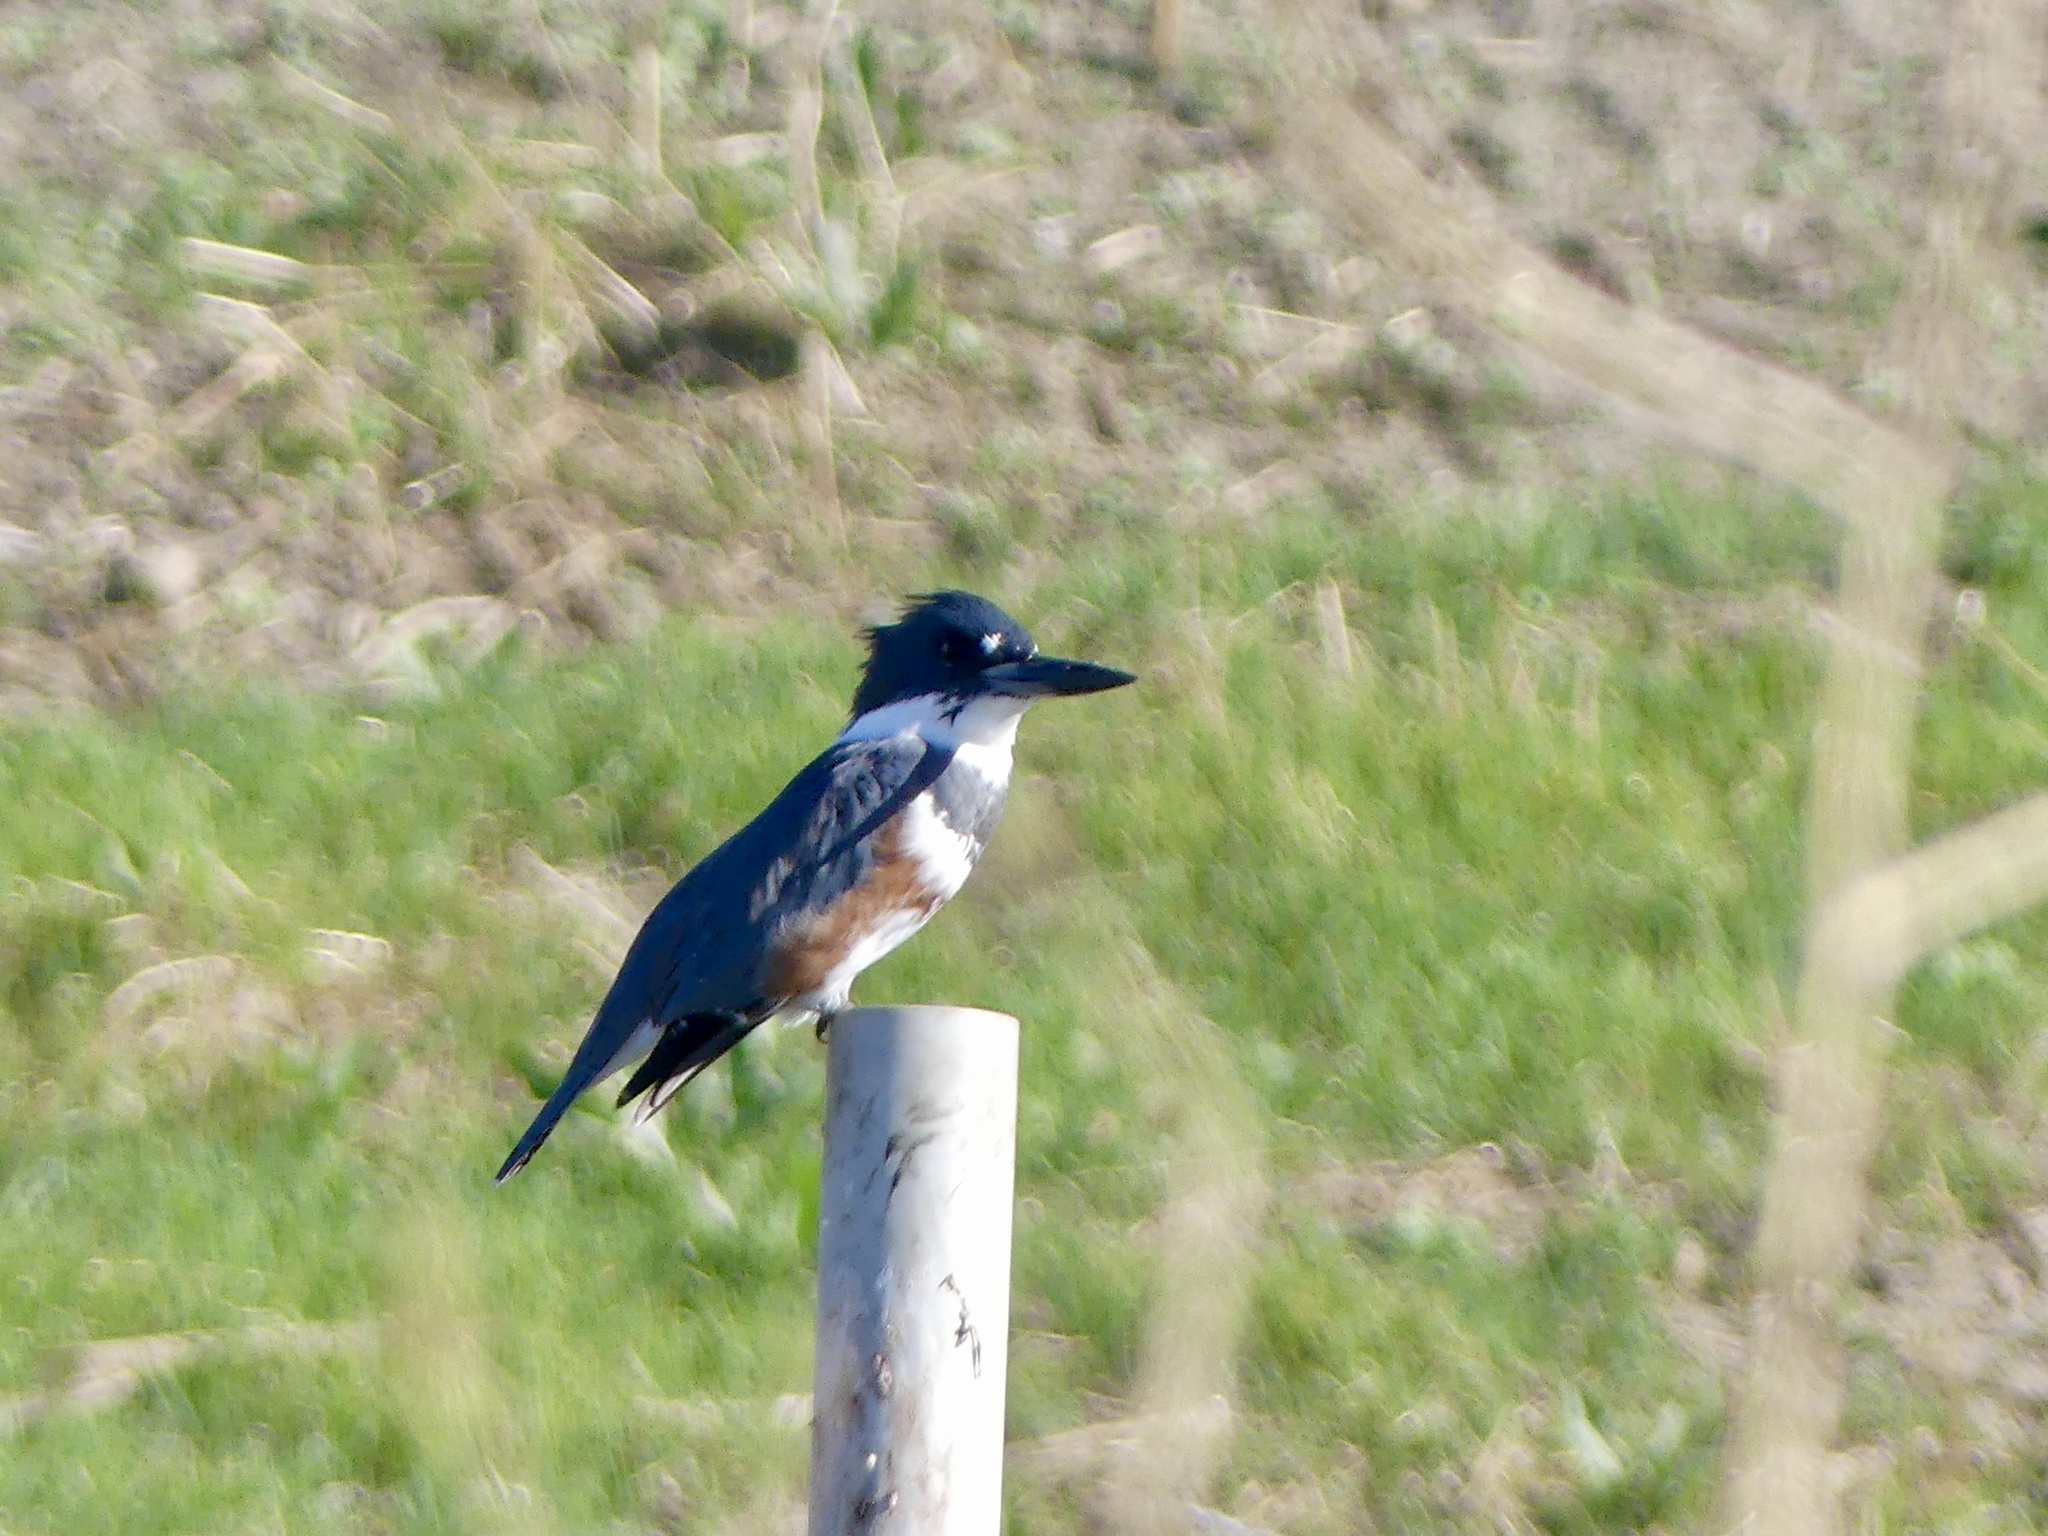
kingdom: Animalia
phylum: Chordata
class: Aves
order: Coraciiformes
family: Alcedinidae
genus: Megaceryle
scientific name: Megaceryle alcyon
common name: Belted kingfisher
